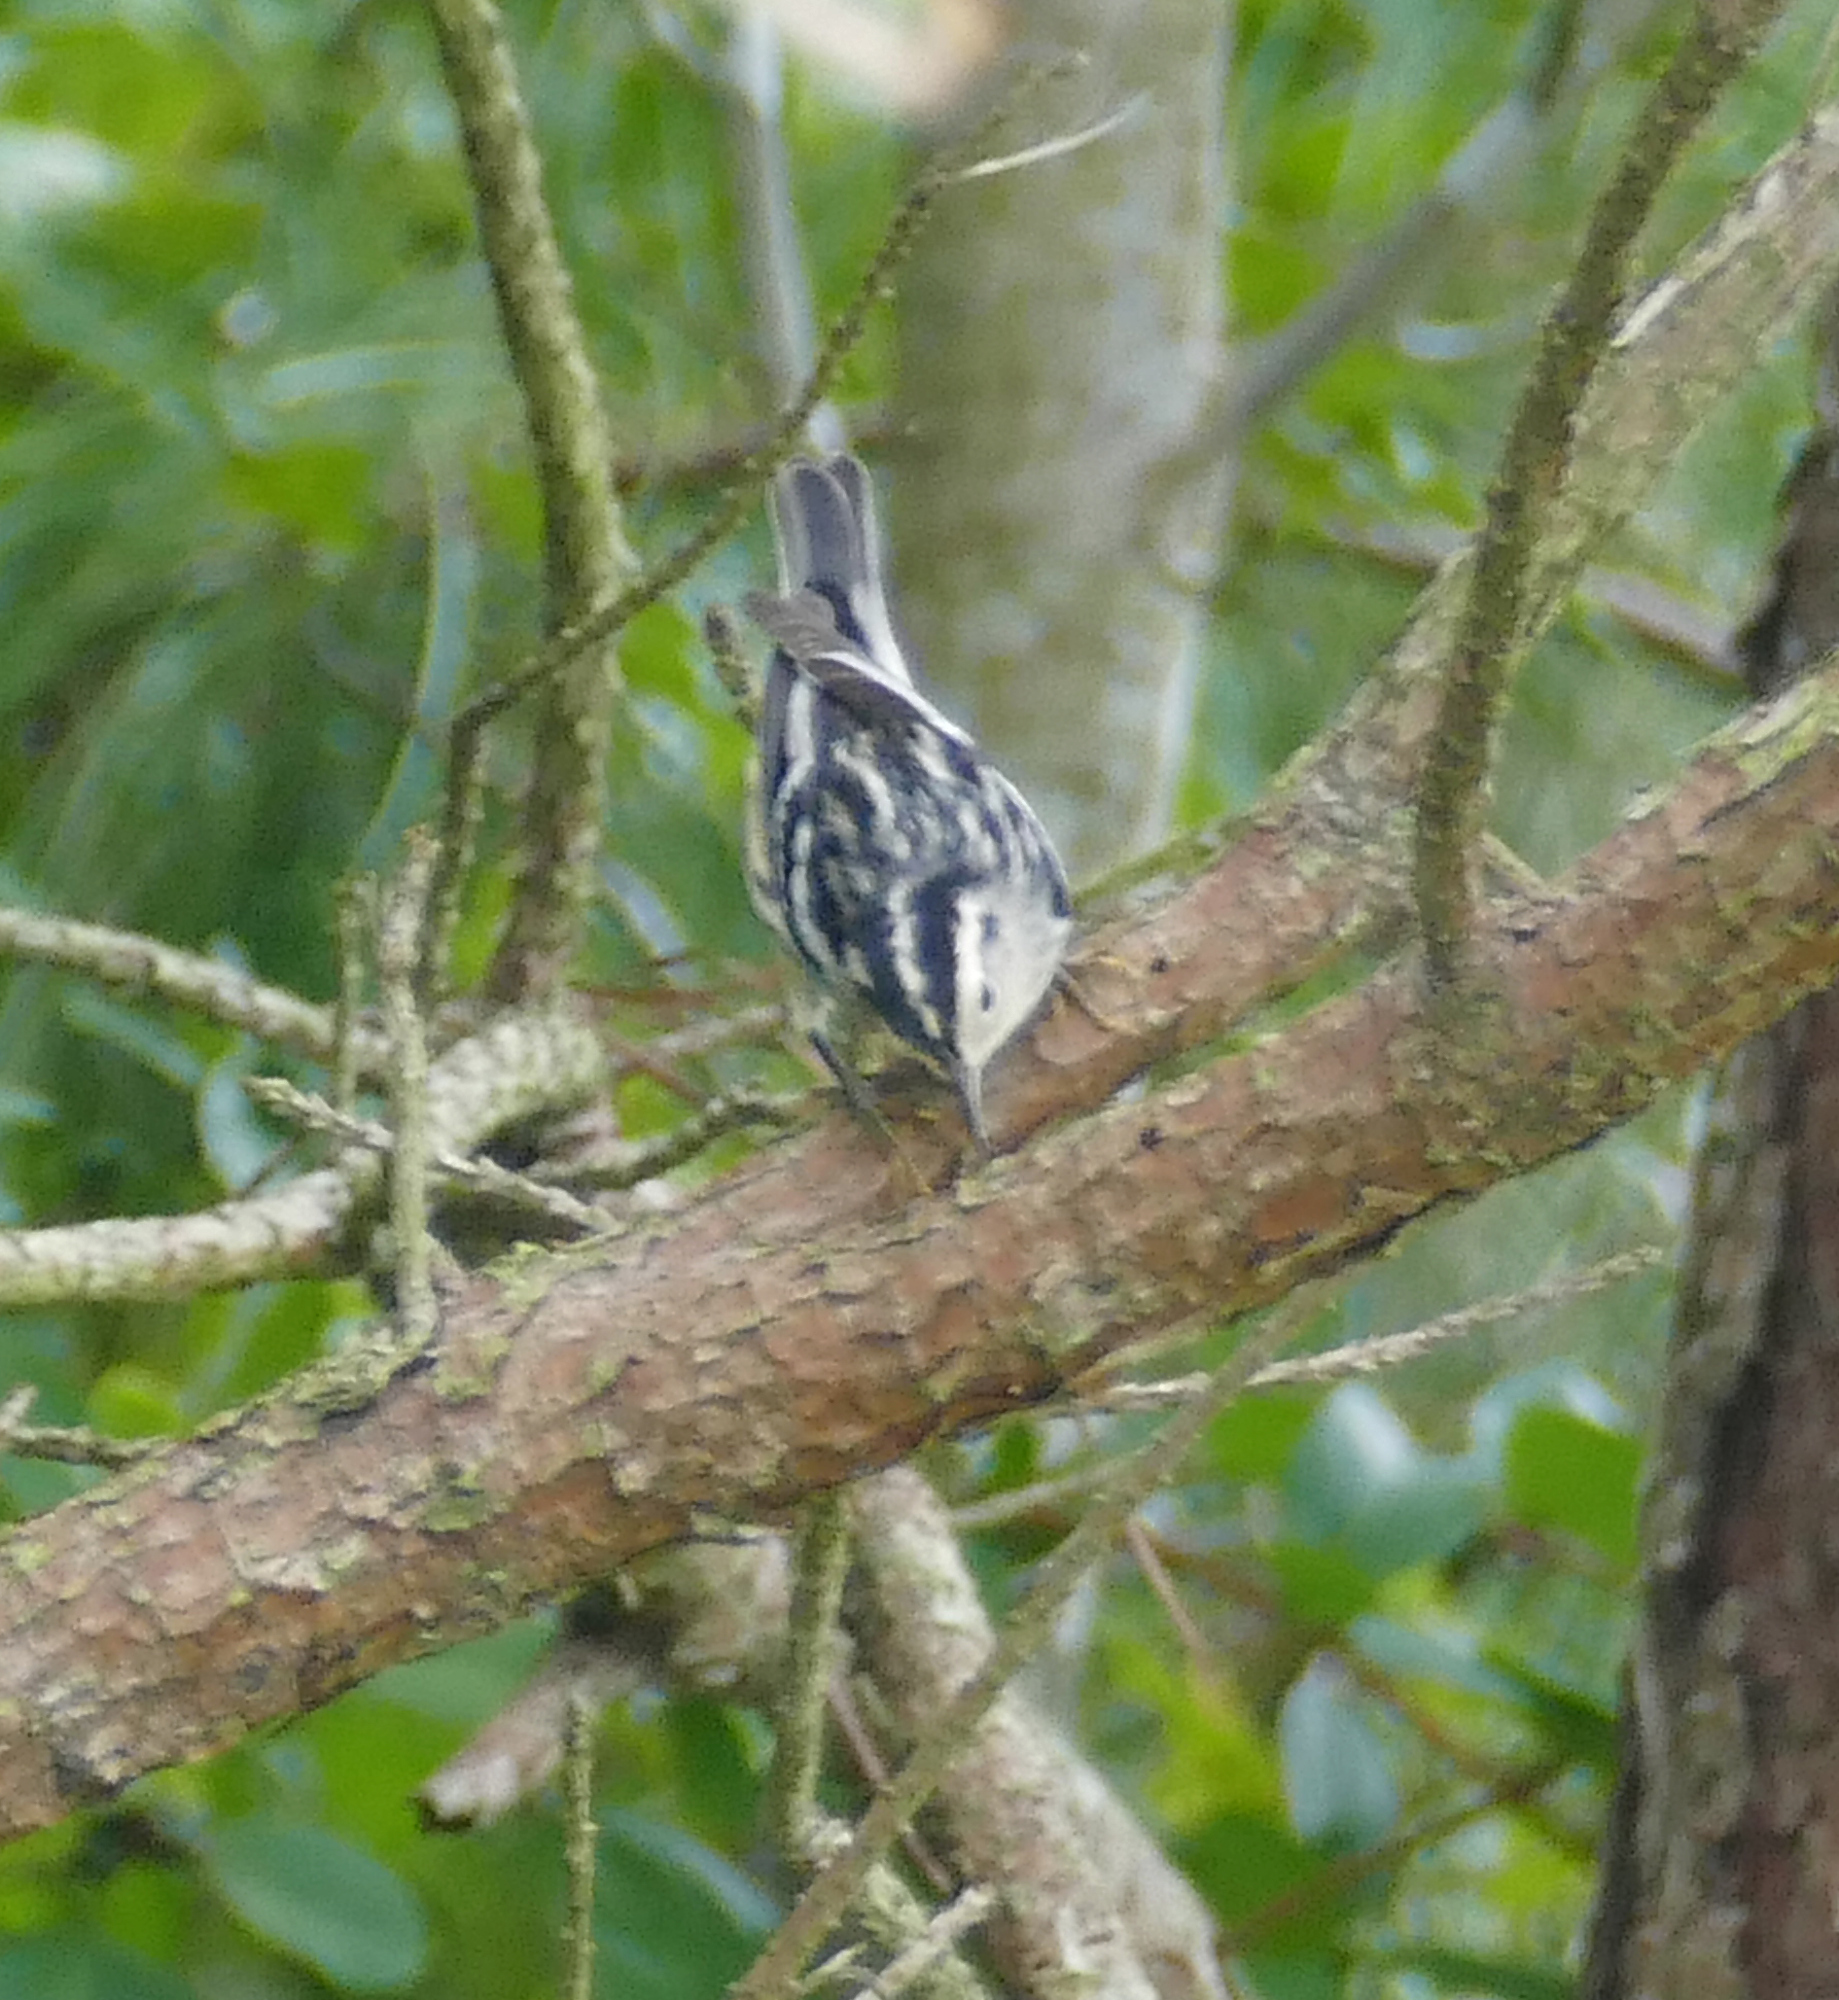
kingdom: Animalia
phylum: Chordata
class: Aves
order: Passeriformes
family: Parulidae
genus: Mniotilta
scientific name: Mniotilta varia
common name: Black-and-white warbler
